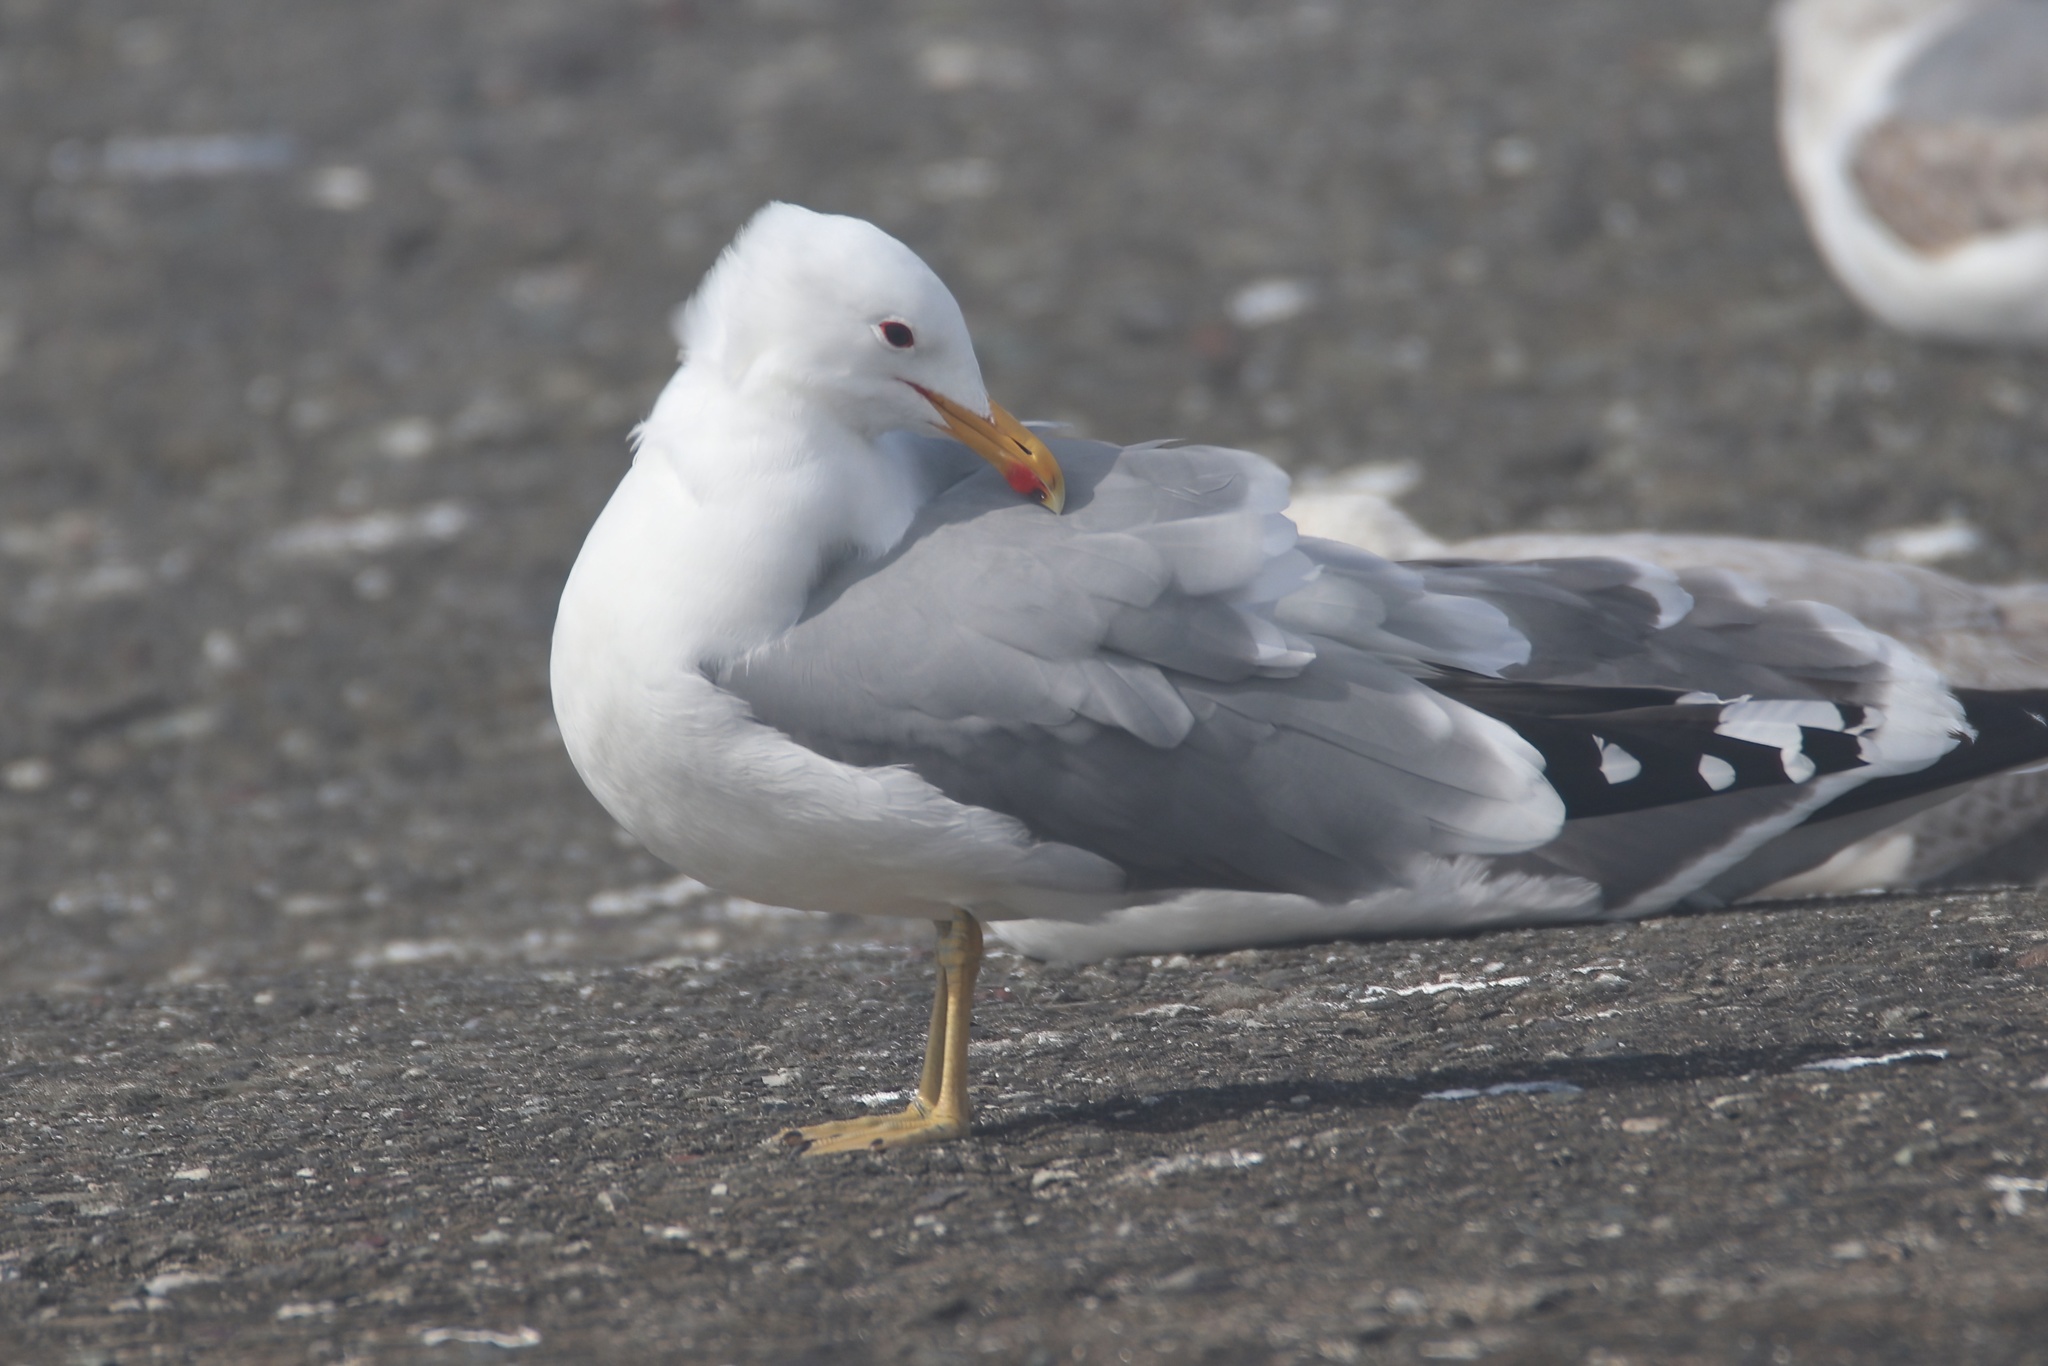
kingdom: Animalia
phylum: Chordata
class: Aves
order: Charadriiformes
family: Laridae
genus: Larus
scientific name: Larus californicus
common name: California gull
